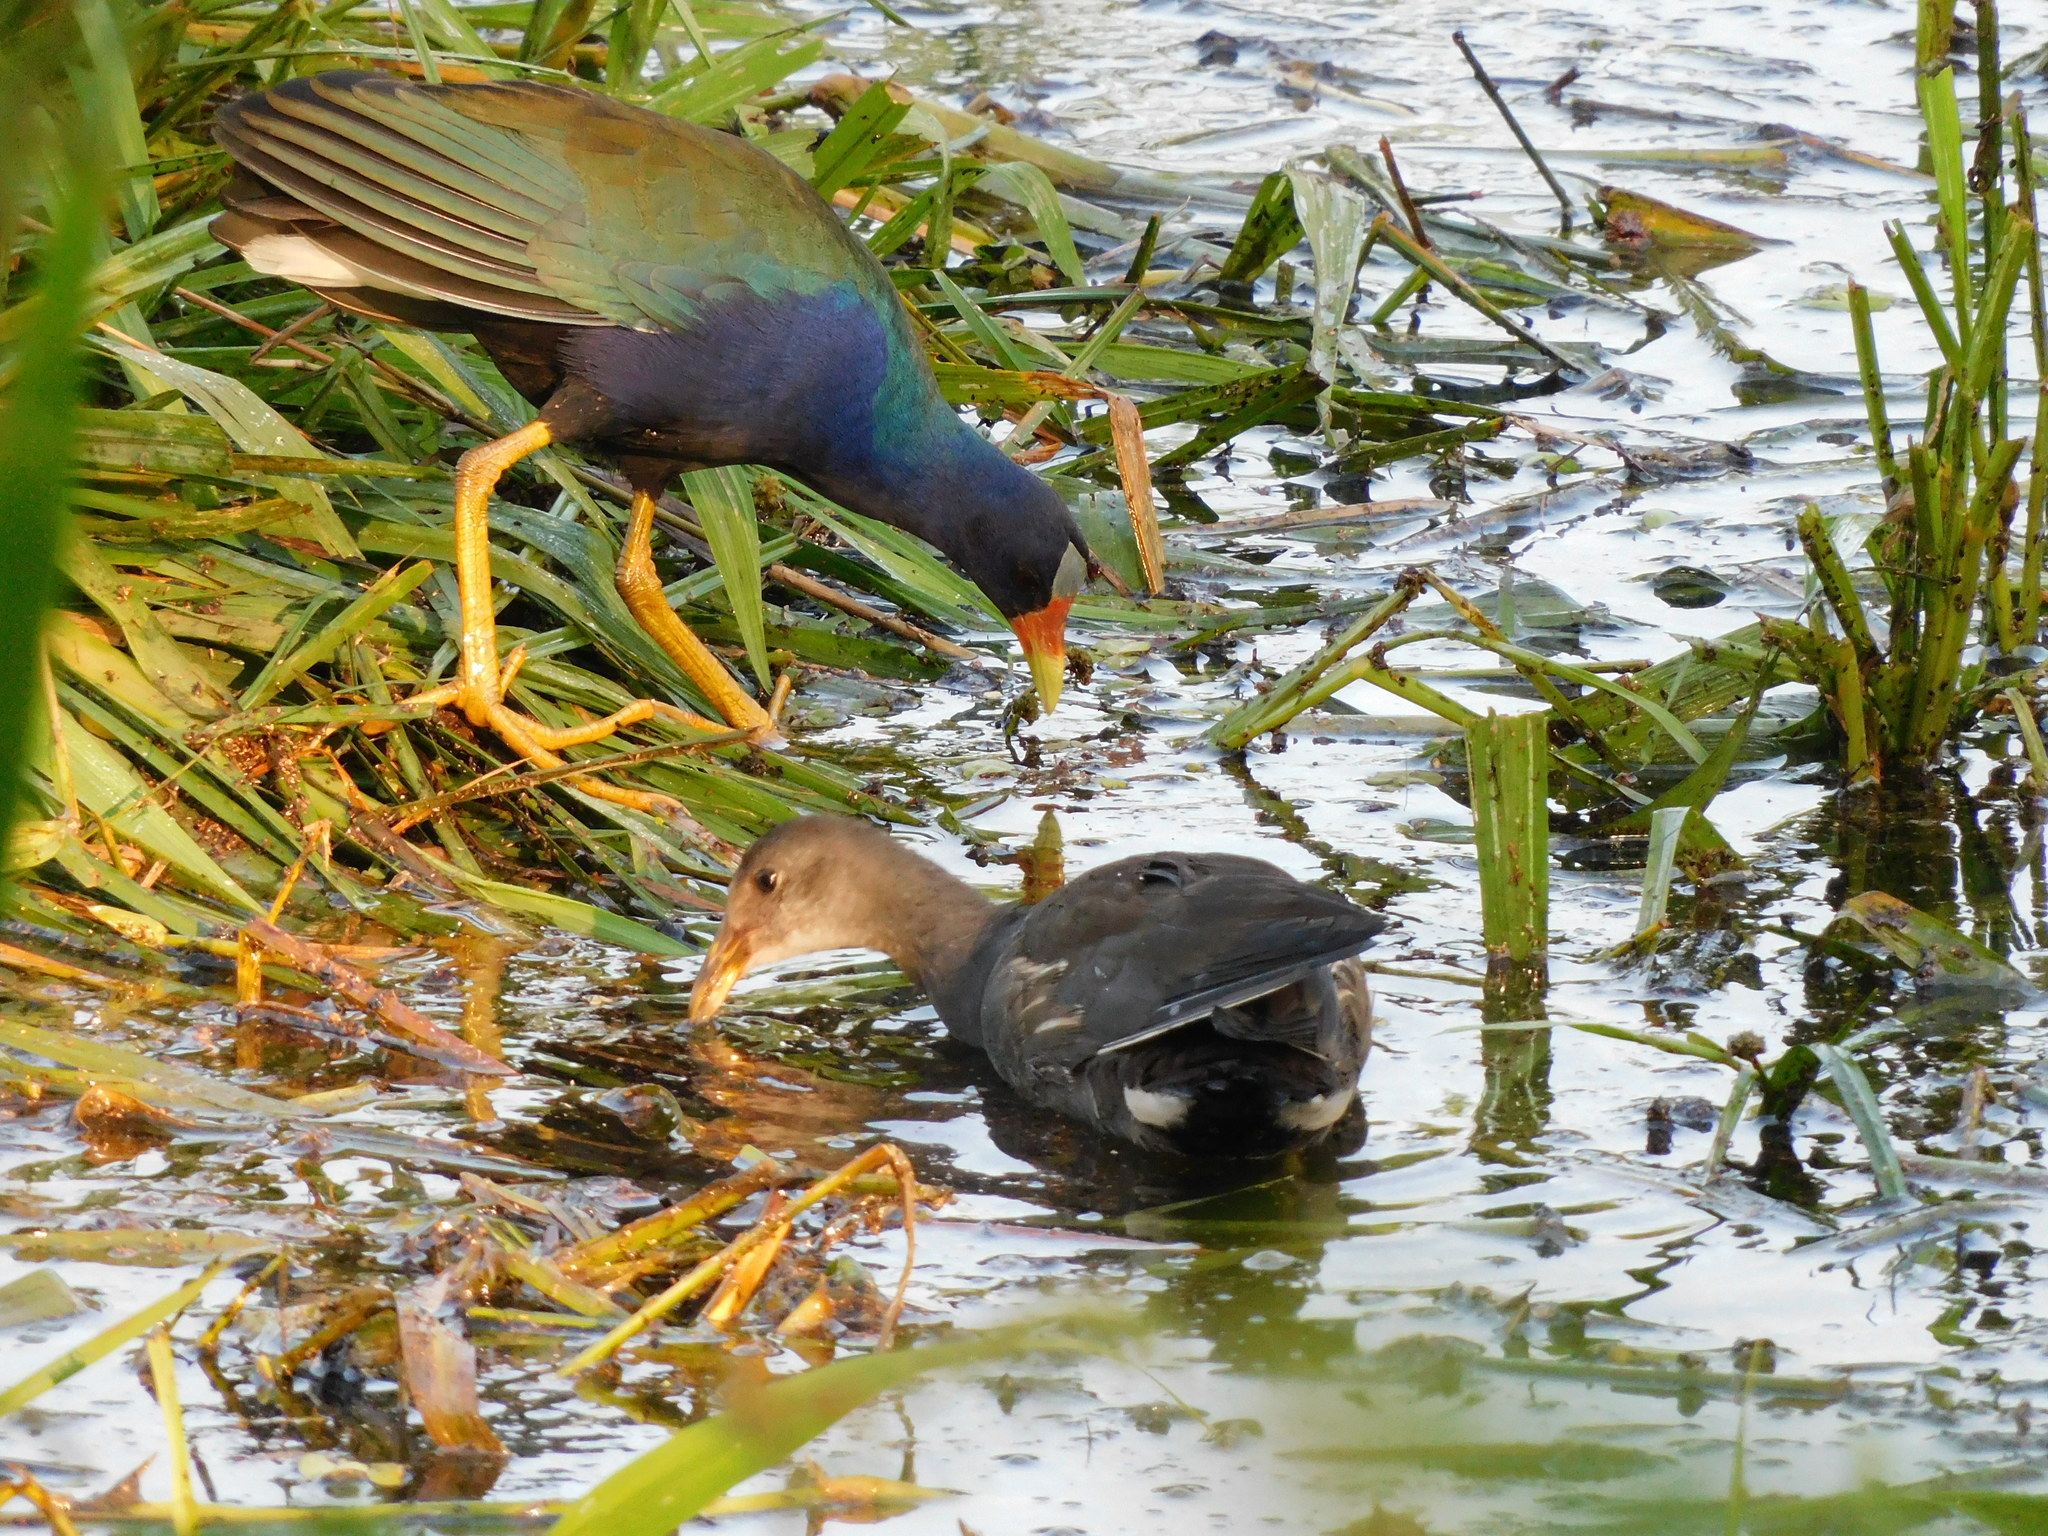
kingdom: Animalia
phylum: Chordata
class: Aves
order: Gruiformes
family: Rallidae
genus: Porphyrio
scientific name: Porphyrio martinica
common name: Purple gallinule
